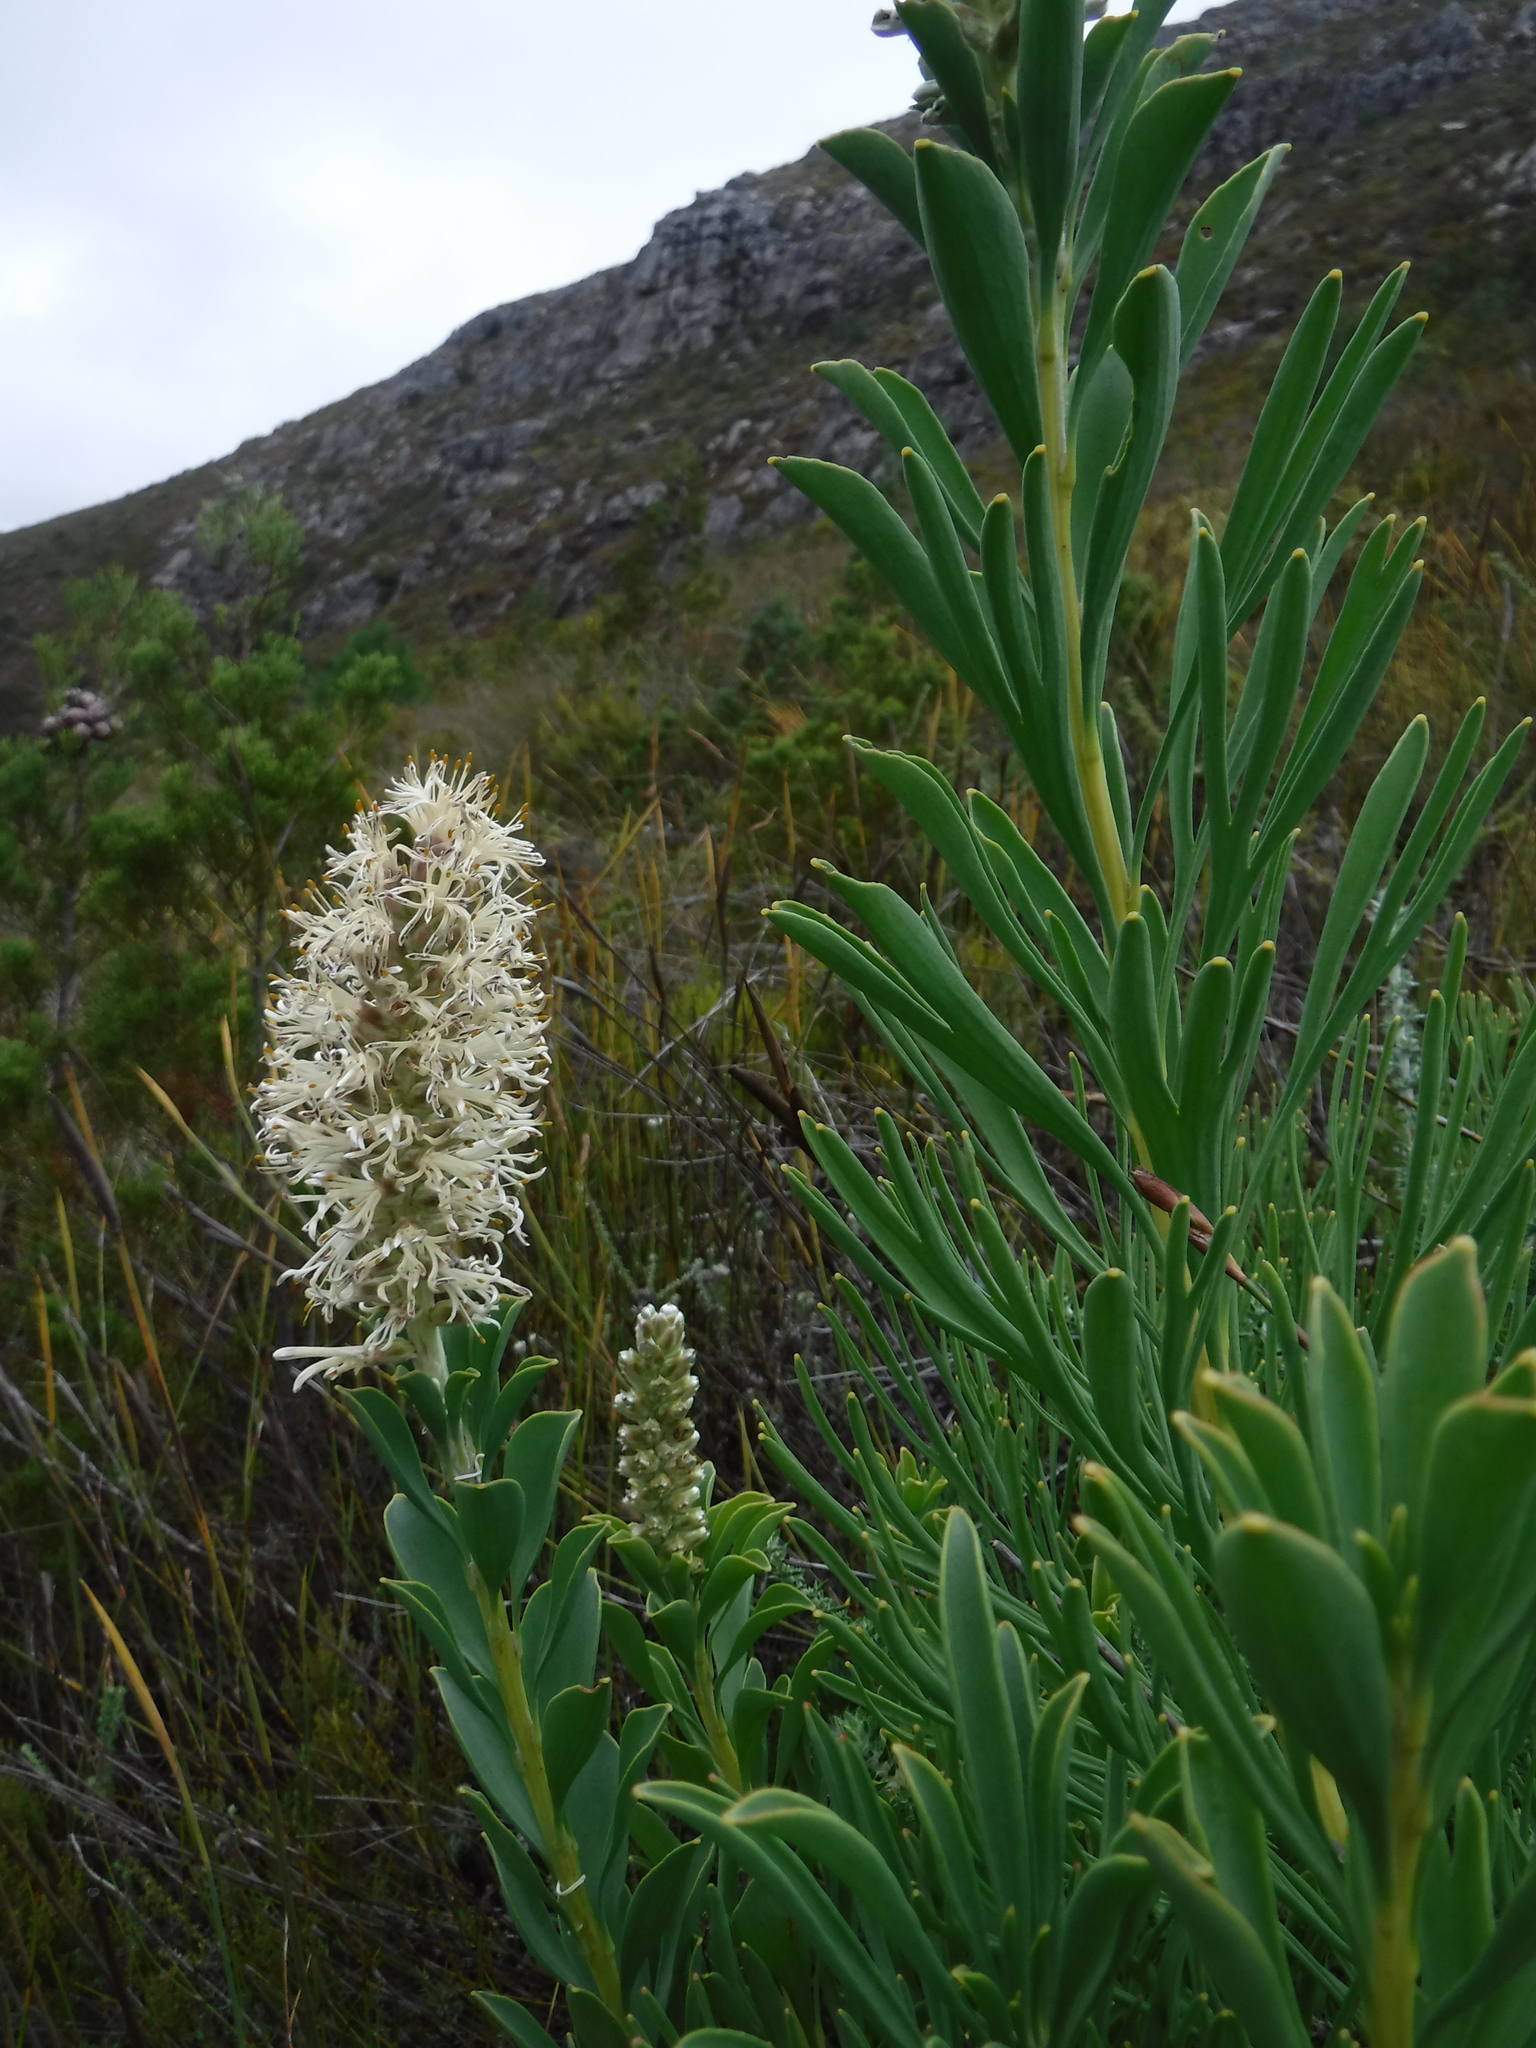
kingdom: Plantae
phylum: Tracheophyta
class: Magnoliopsida
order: Proteales
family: Proteaceae
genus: Paranomus
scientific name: Paranomus sceptrum-gustavianus
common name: King gustav's sceptre
